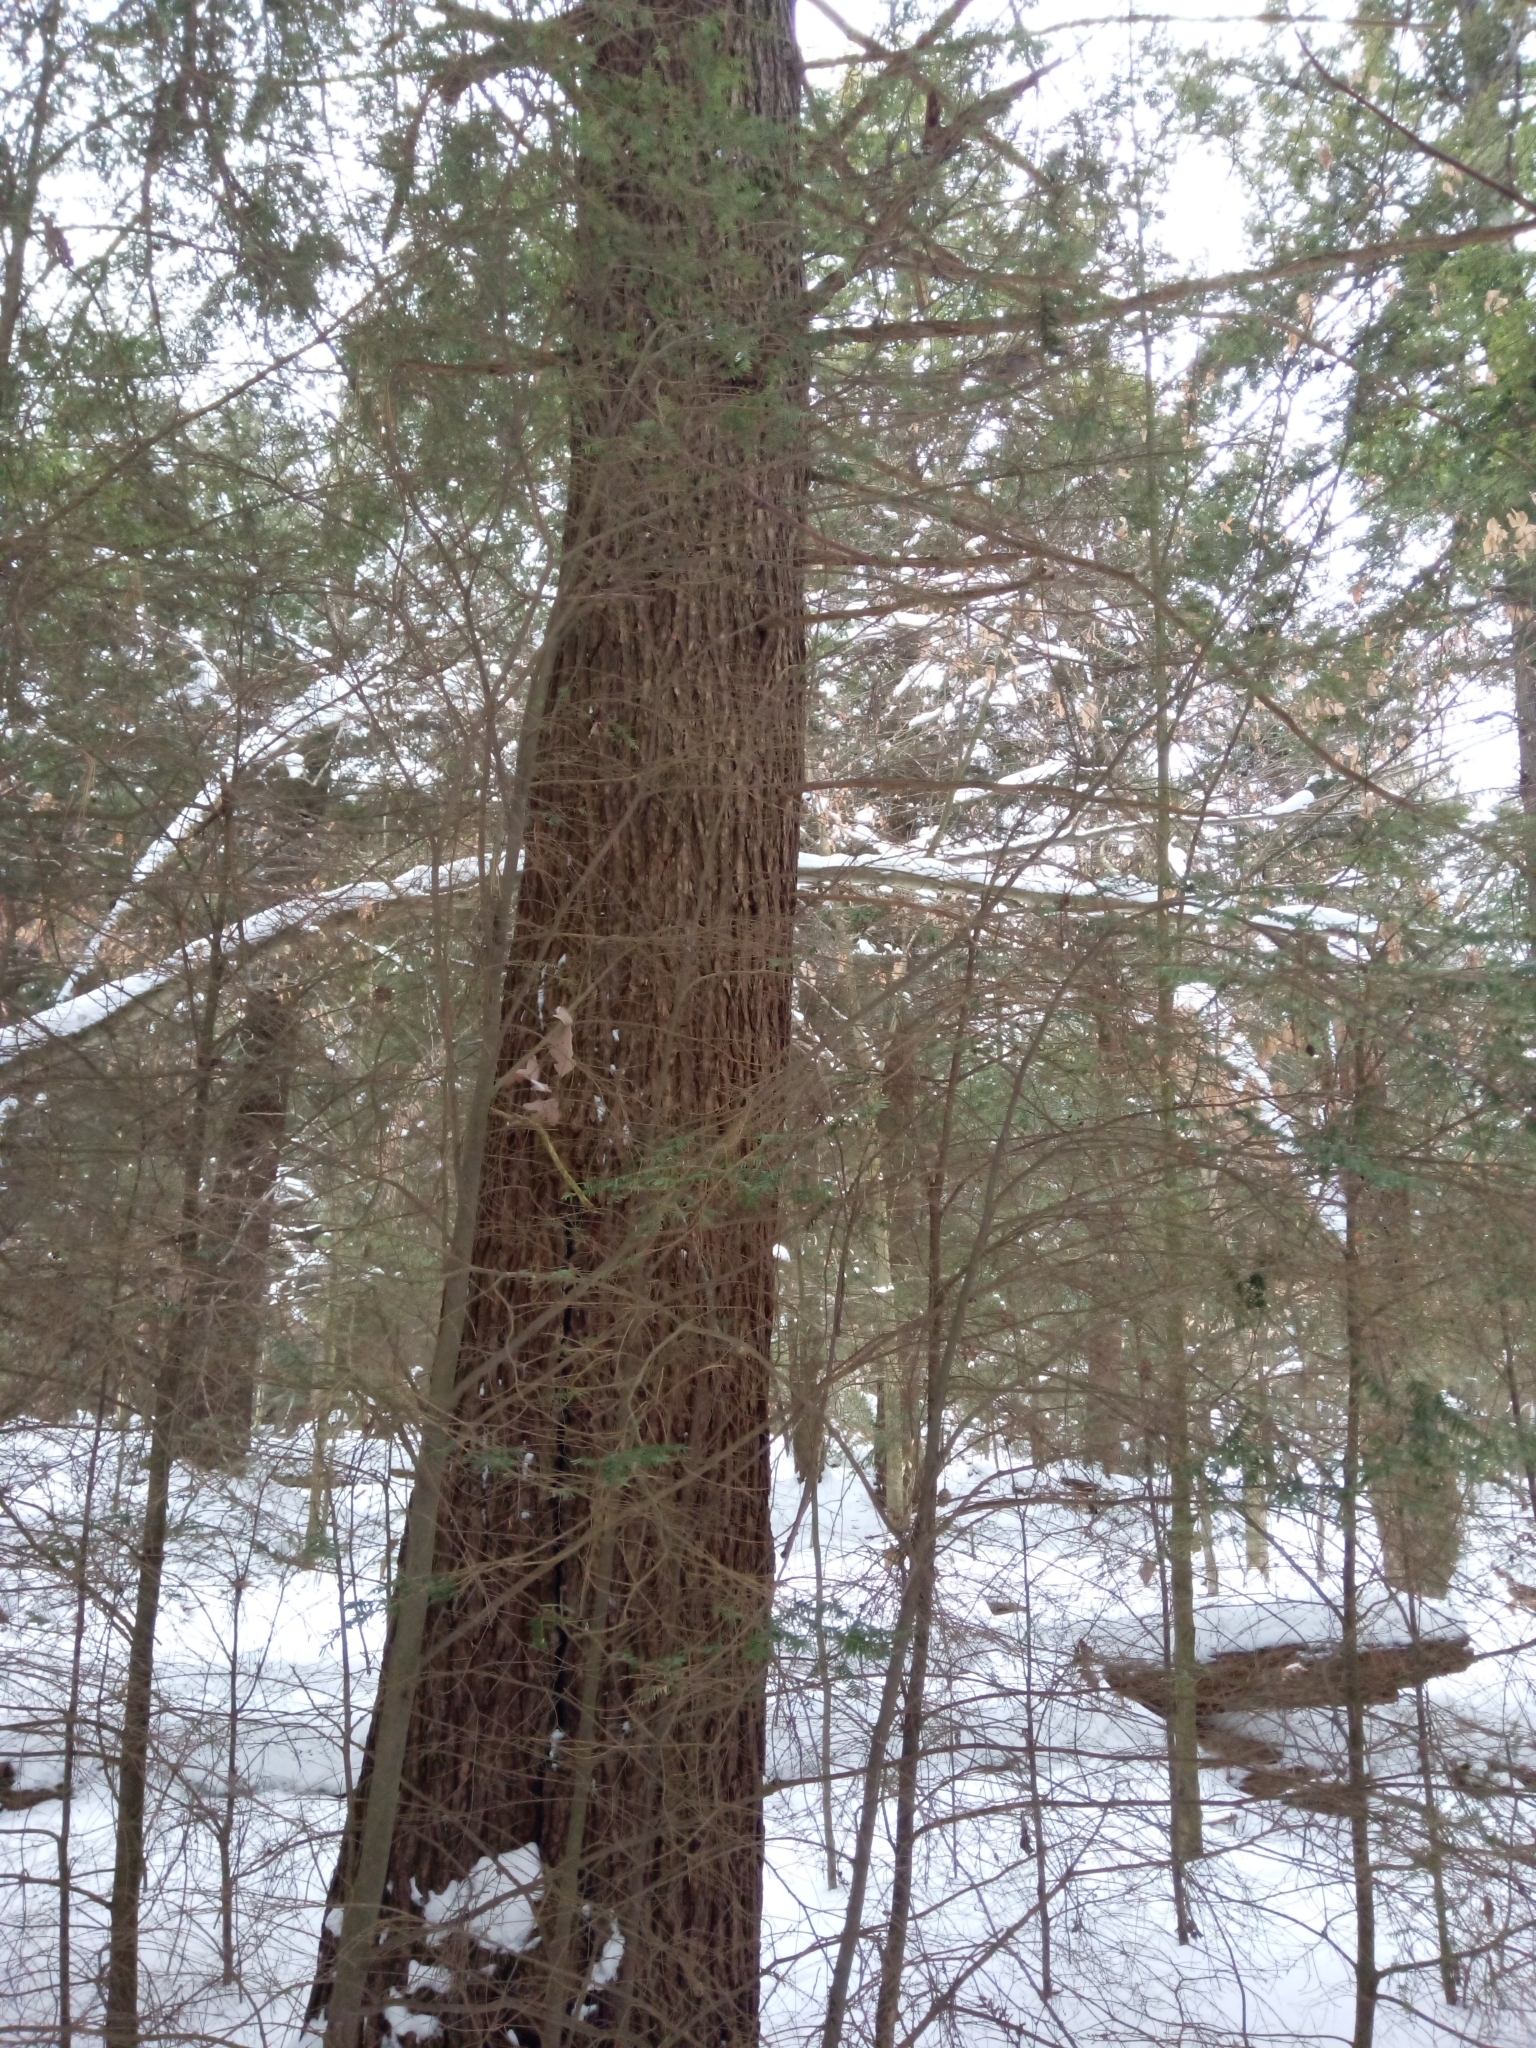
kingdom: Plantae
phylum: Tracheophyta
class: Pinopsida
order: Pinales
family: Pinaceae
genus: Tsuga
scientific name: Tsuga canadensis
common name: Eastern hemlock
